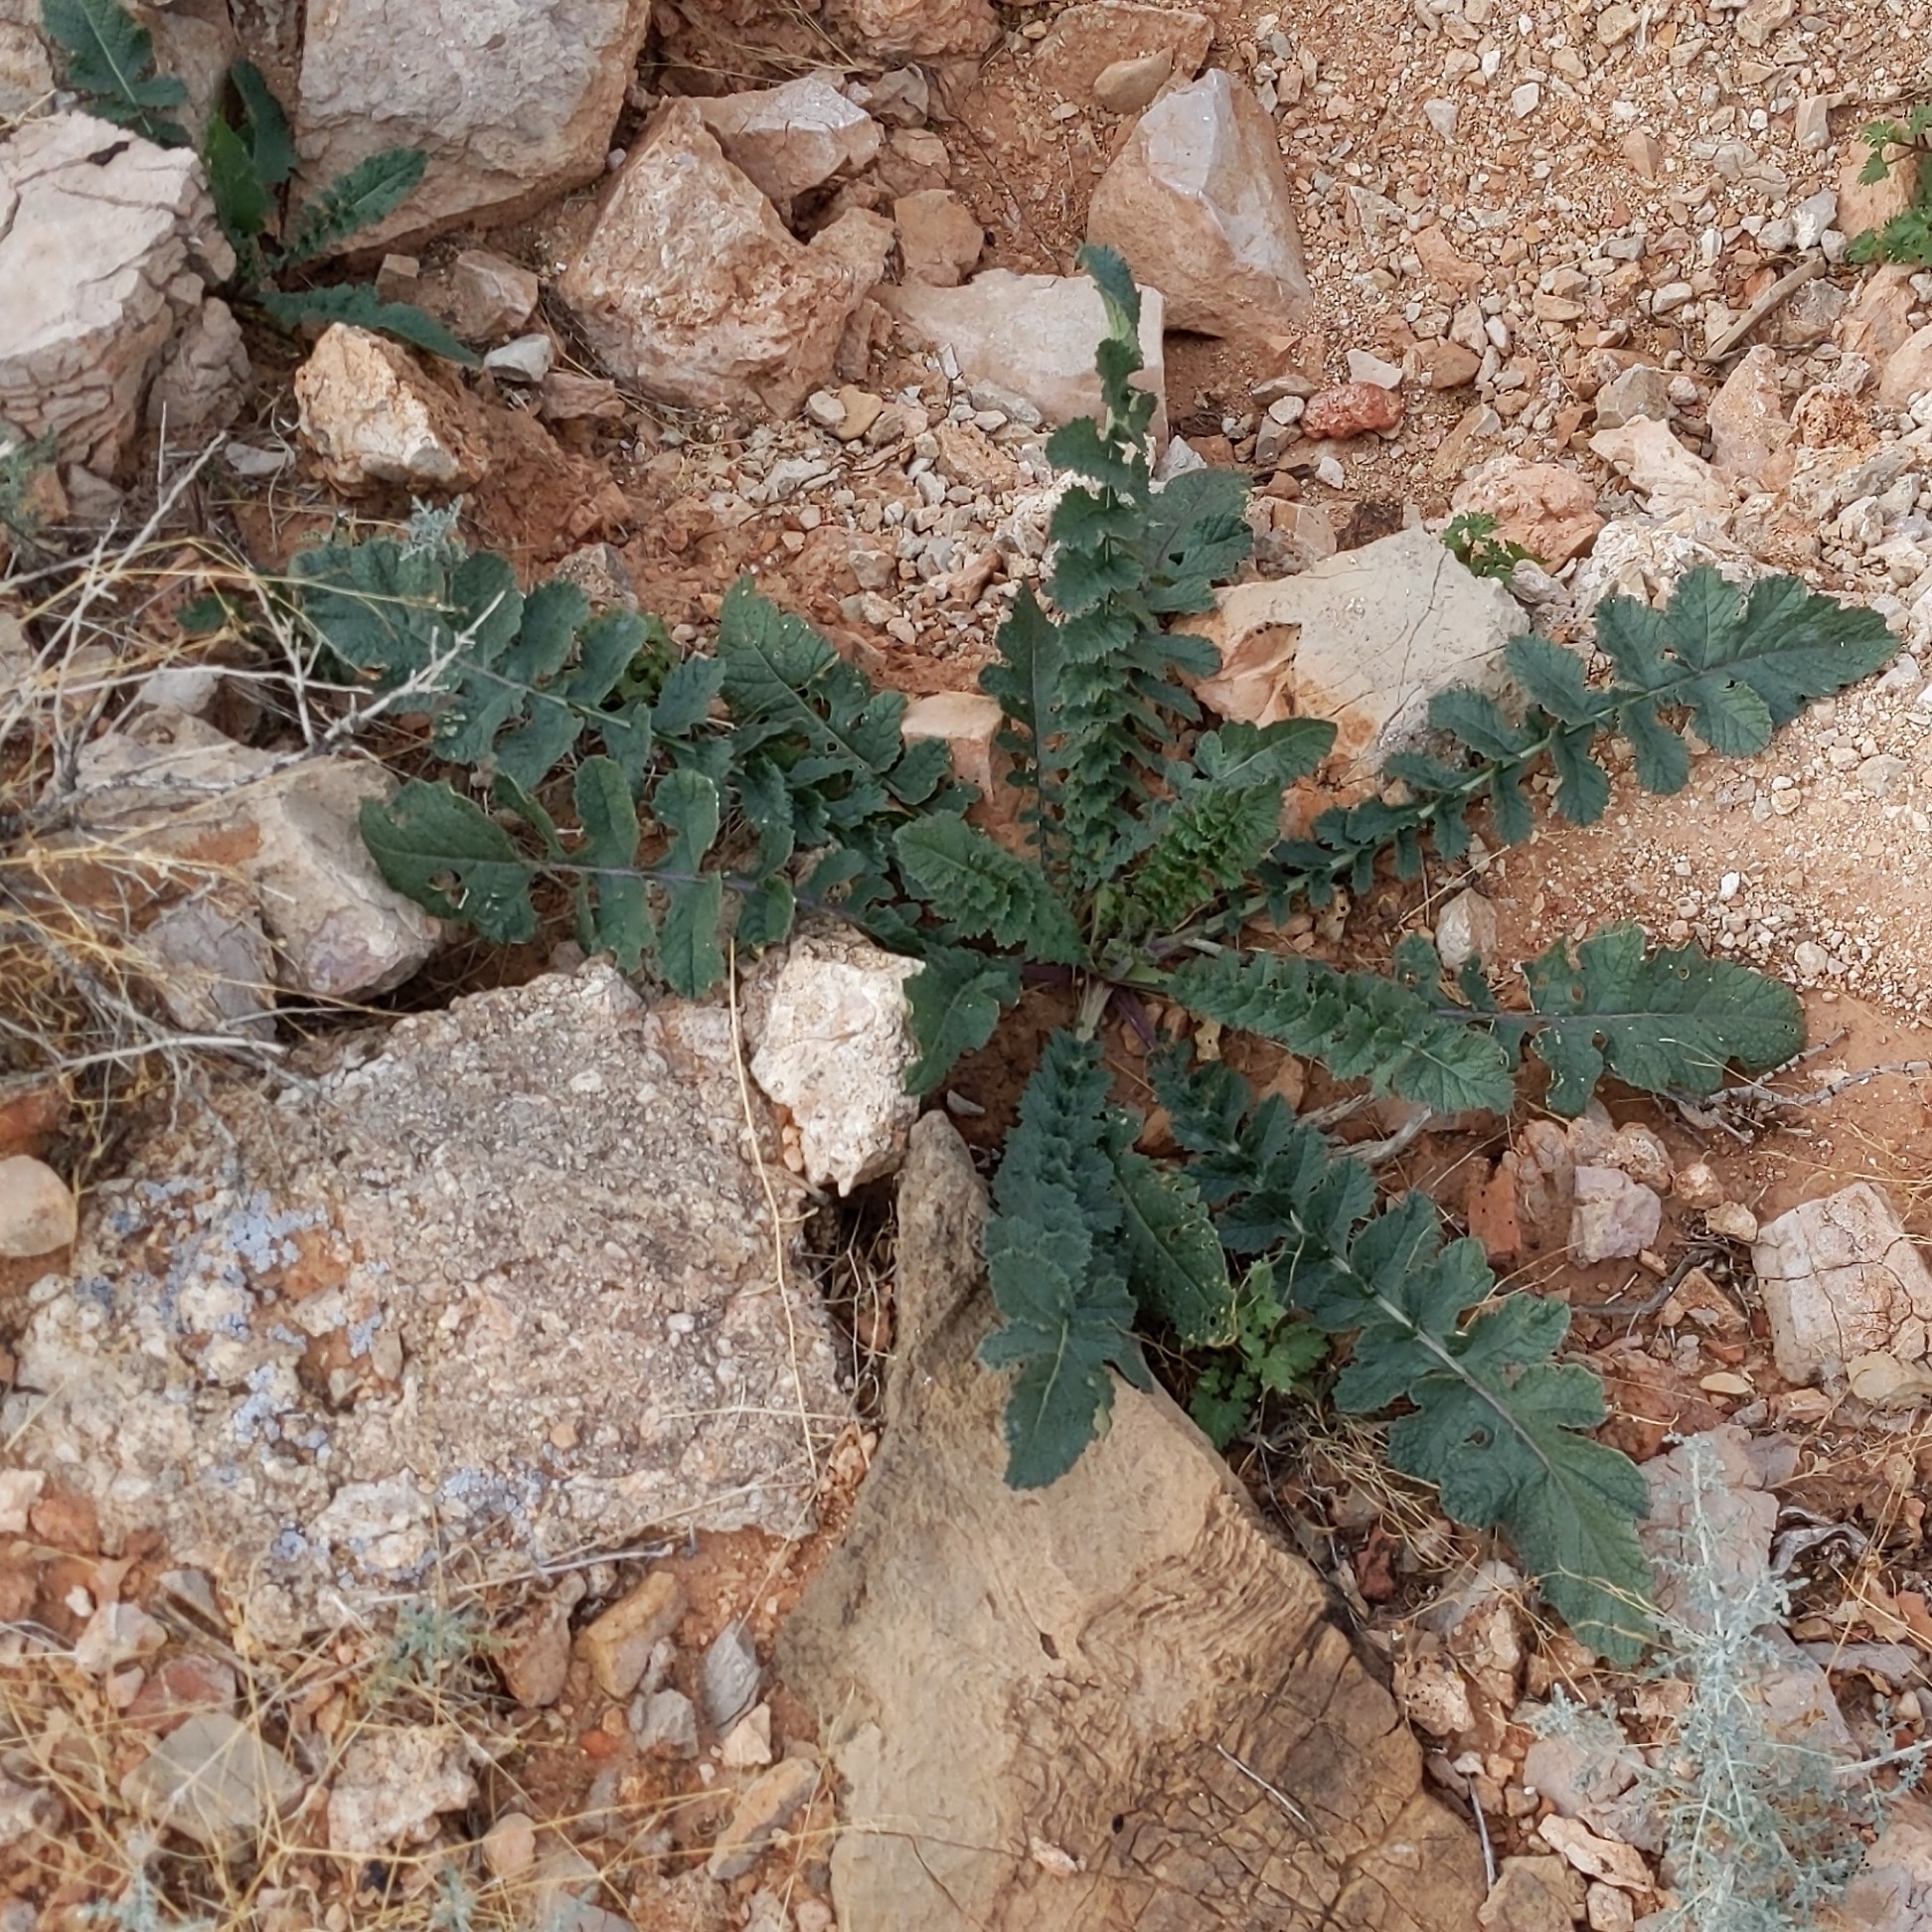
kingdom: Plantae
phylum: Tracheophyta
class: Magnoliopsida
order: Brassicales
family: Brassicaceae
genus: Brassica
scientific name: Brassica tournefortii
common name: Pale cabbage
